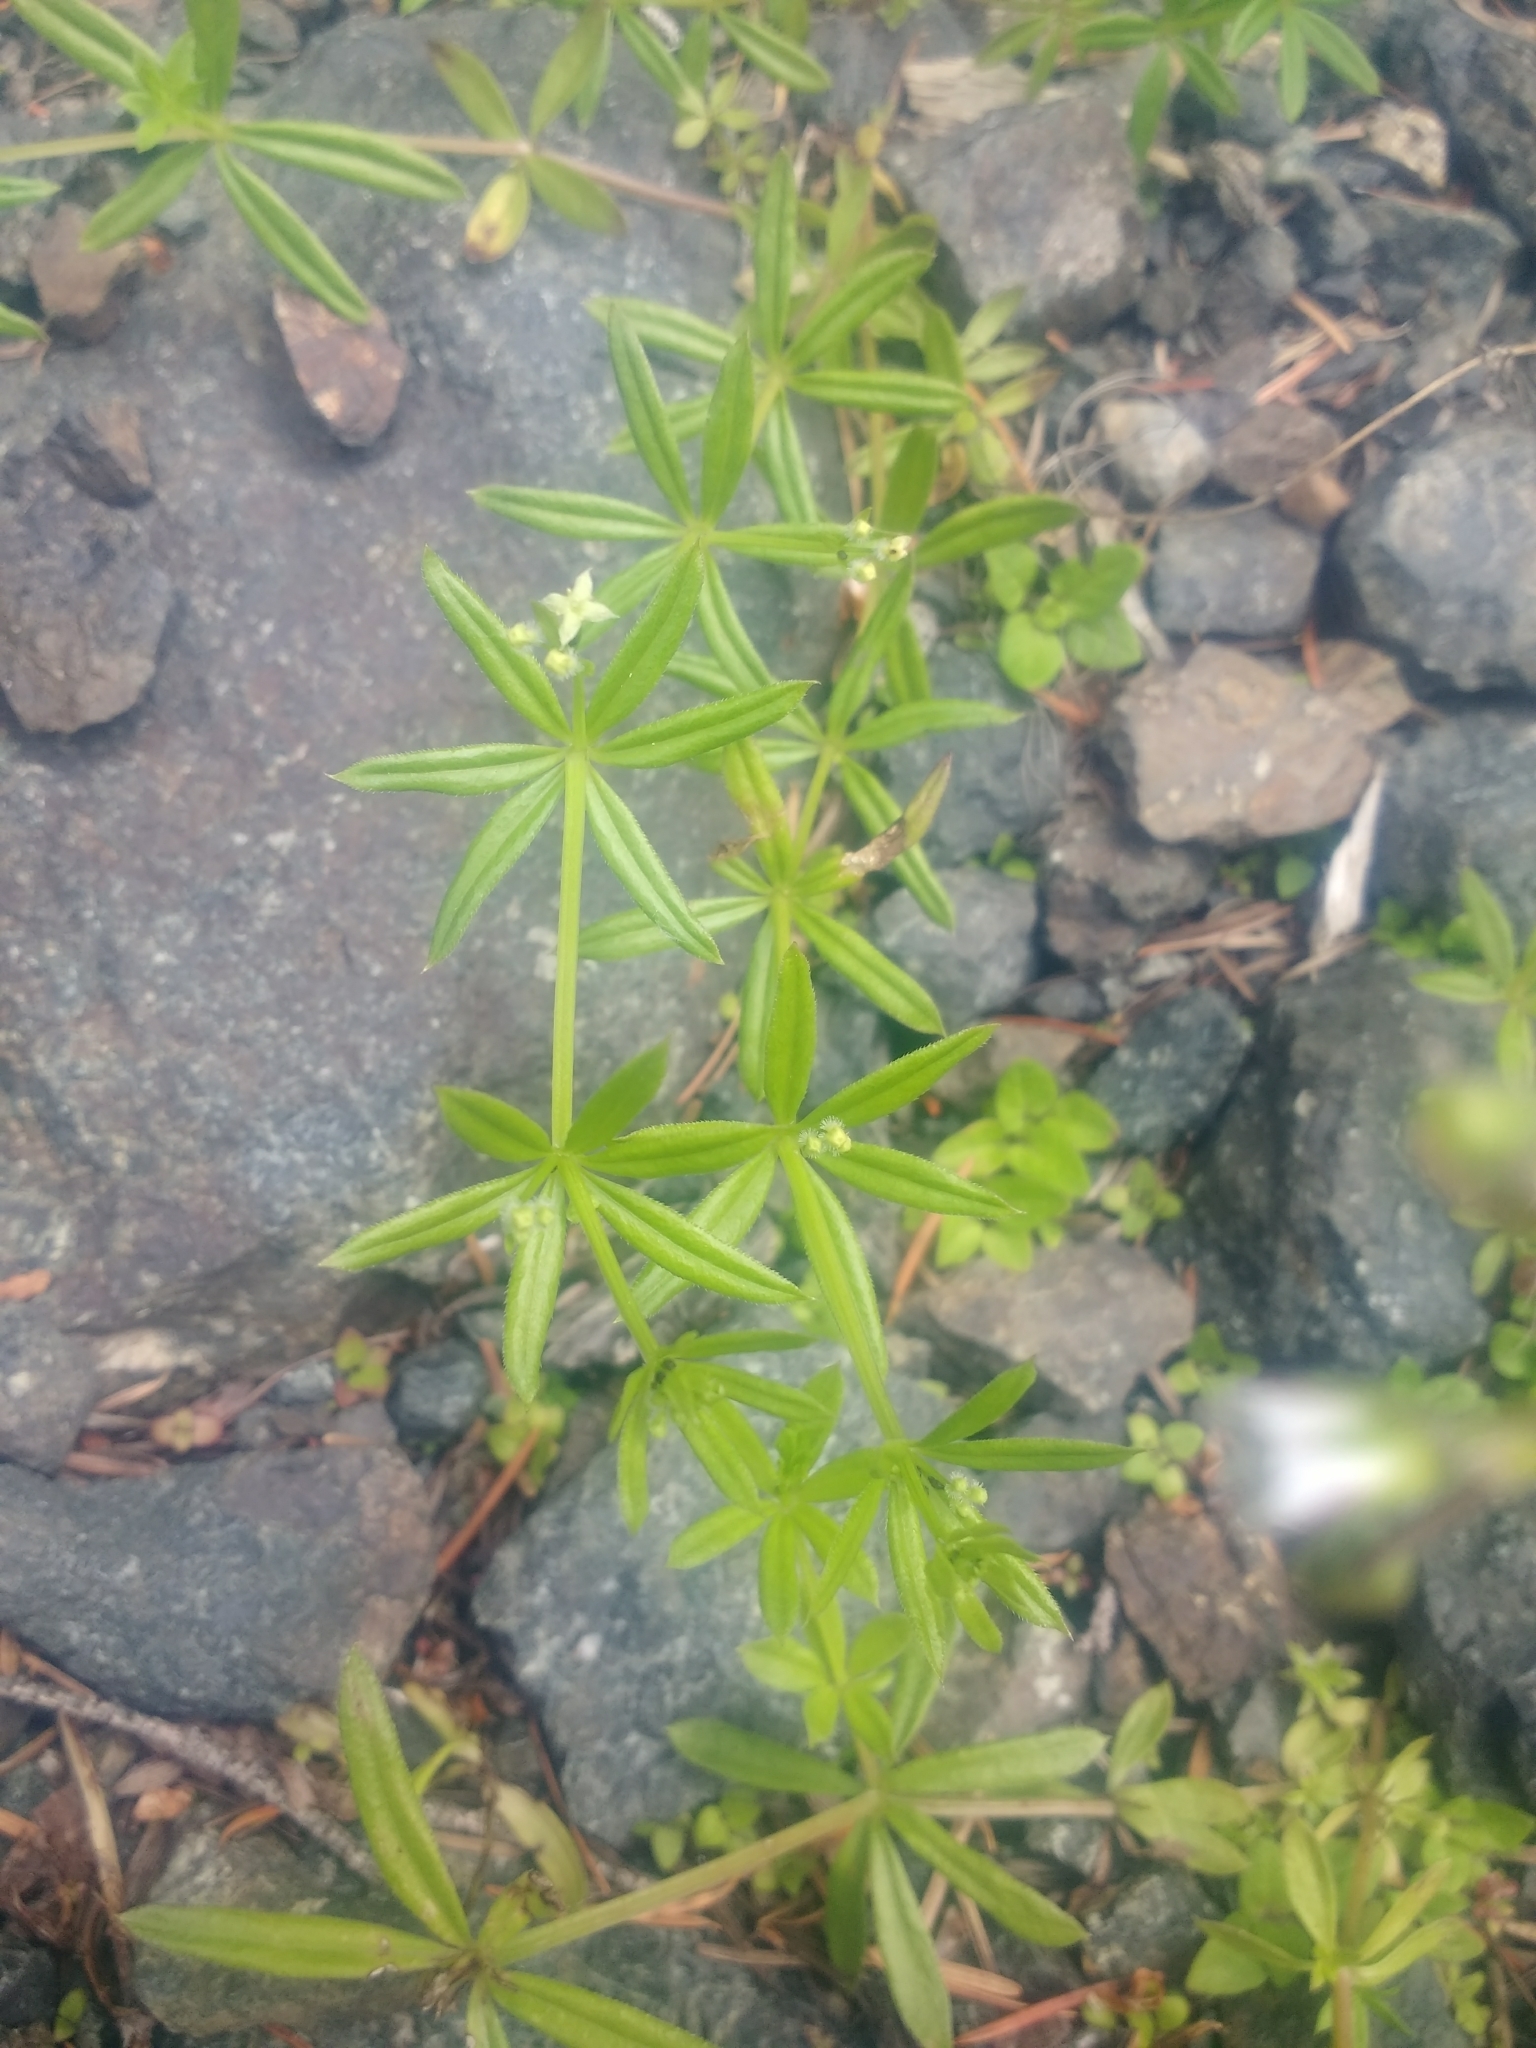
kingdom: Plantae
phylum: Tracheophyta
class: Magnoliopsida
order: Gentianales
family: Rubiaceae
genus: Galium
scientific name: Galium triflorum
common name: Fragrant bedstraw
